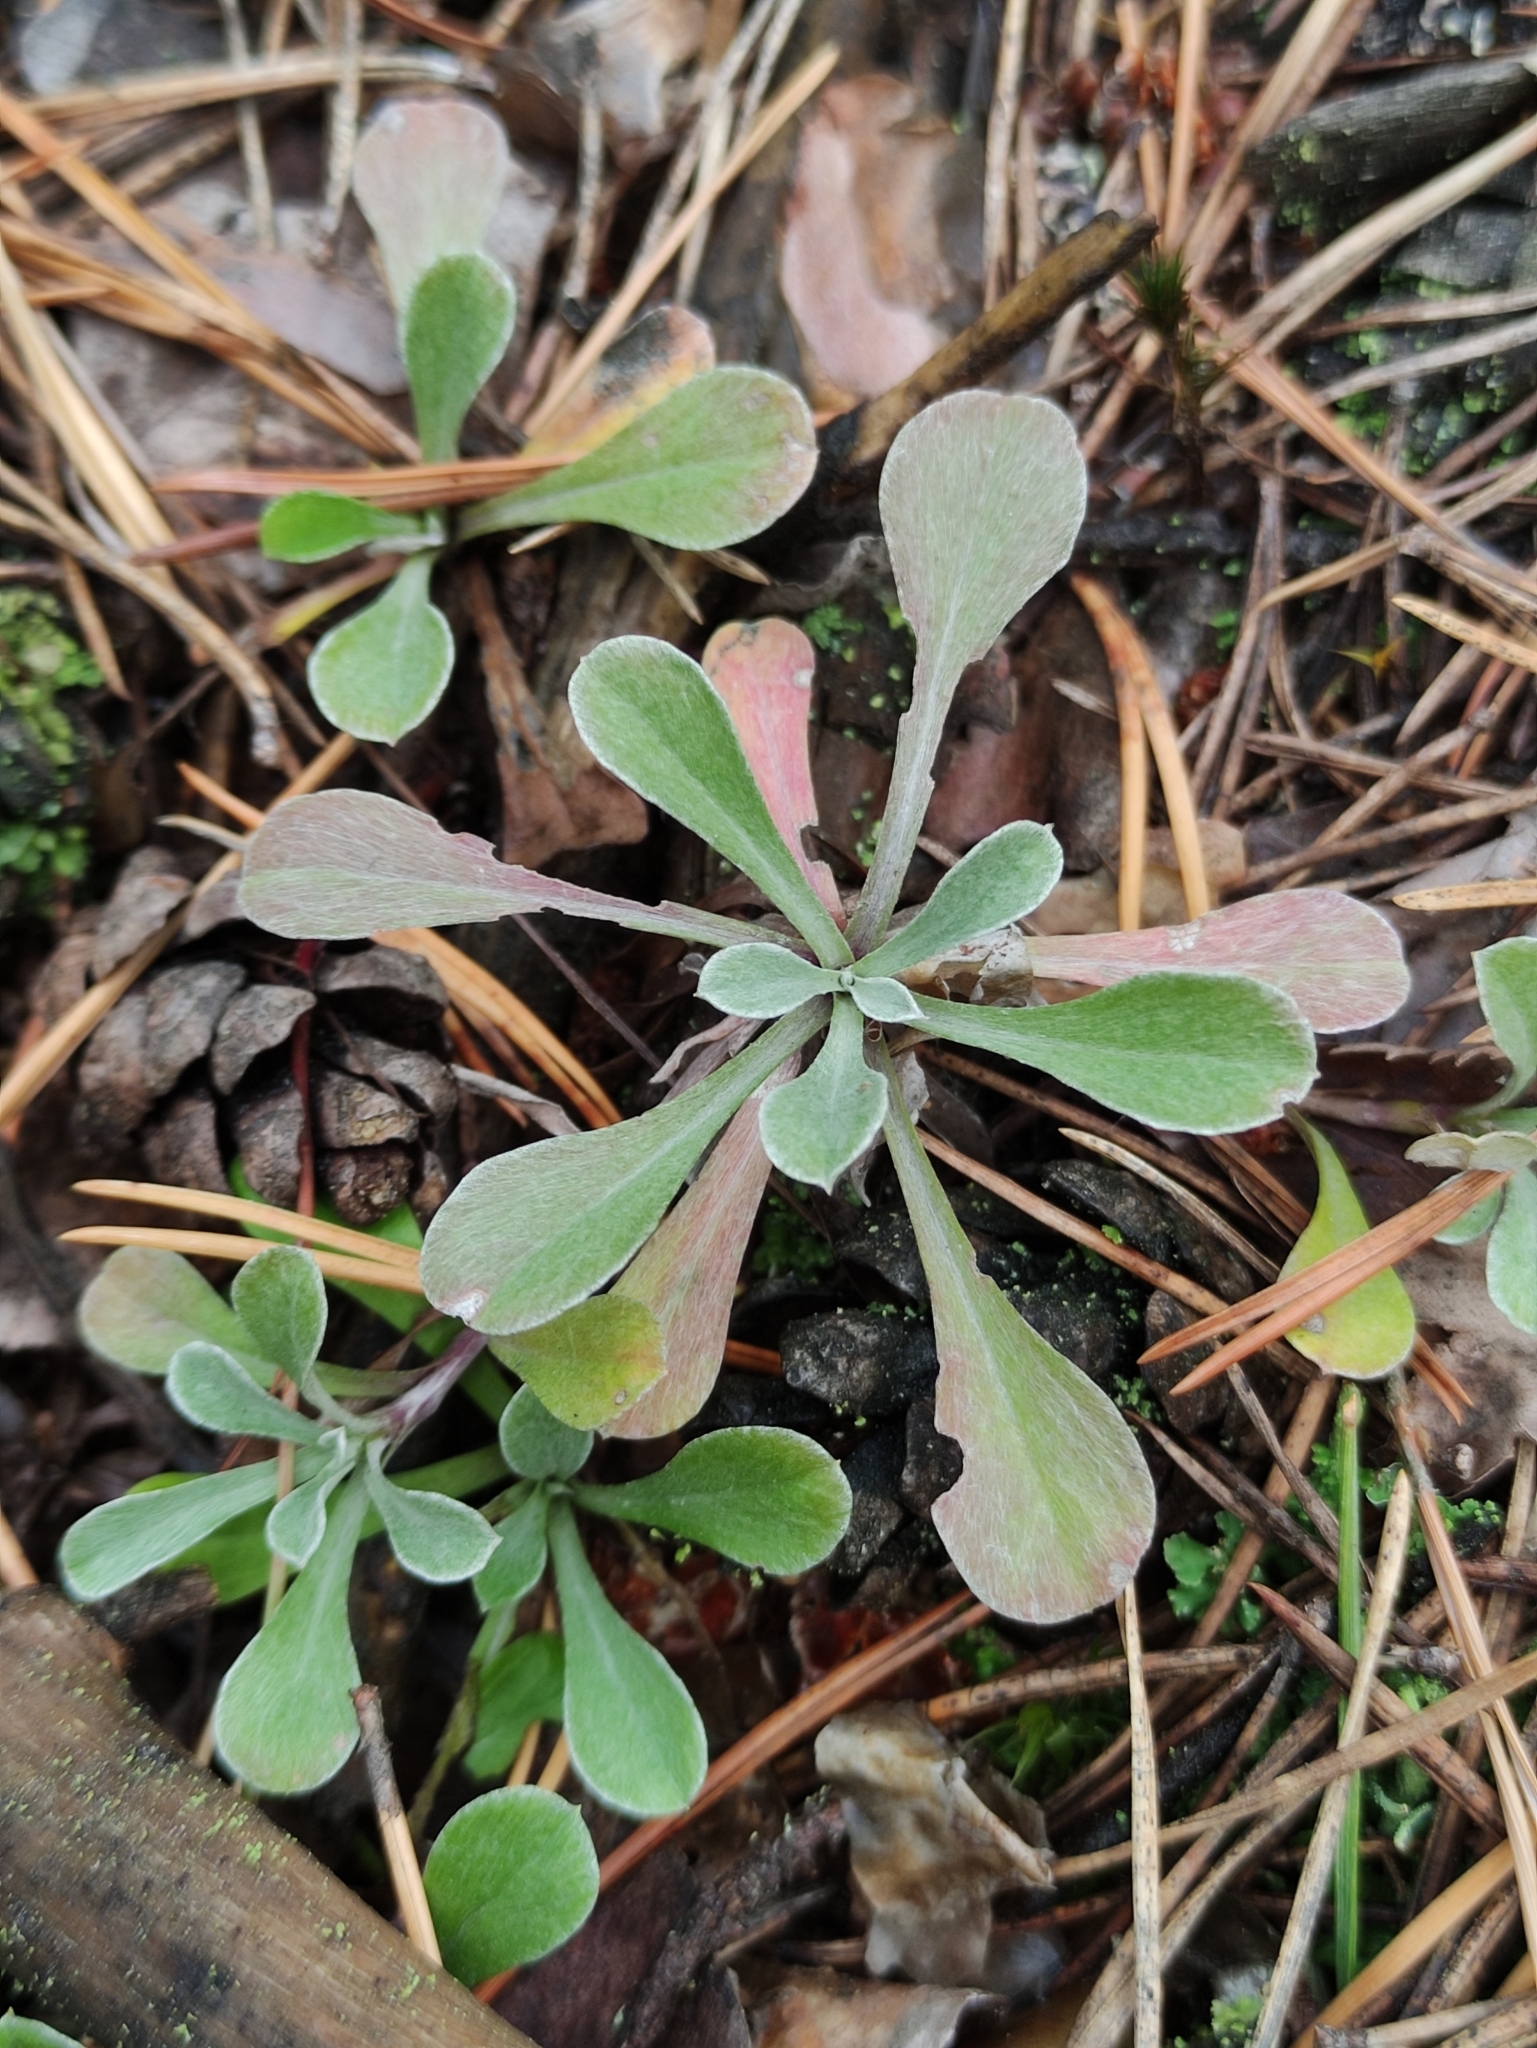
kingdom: Plantae
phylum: Tracheophyta
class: Magnoliopsida
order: Asterales
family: Asteraceae
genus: Antennaria
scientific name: Antennaria dioica
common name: Mountain everlasting
